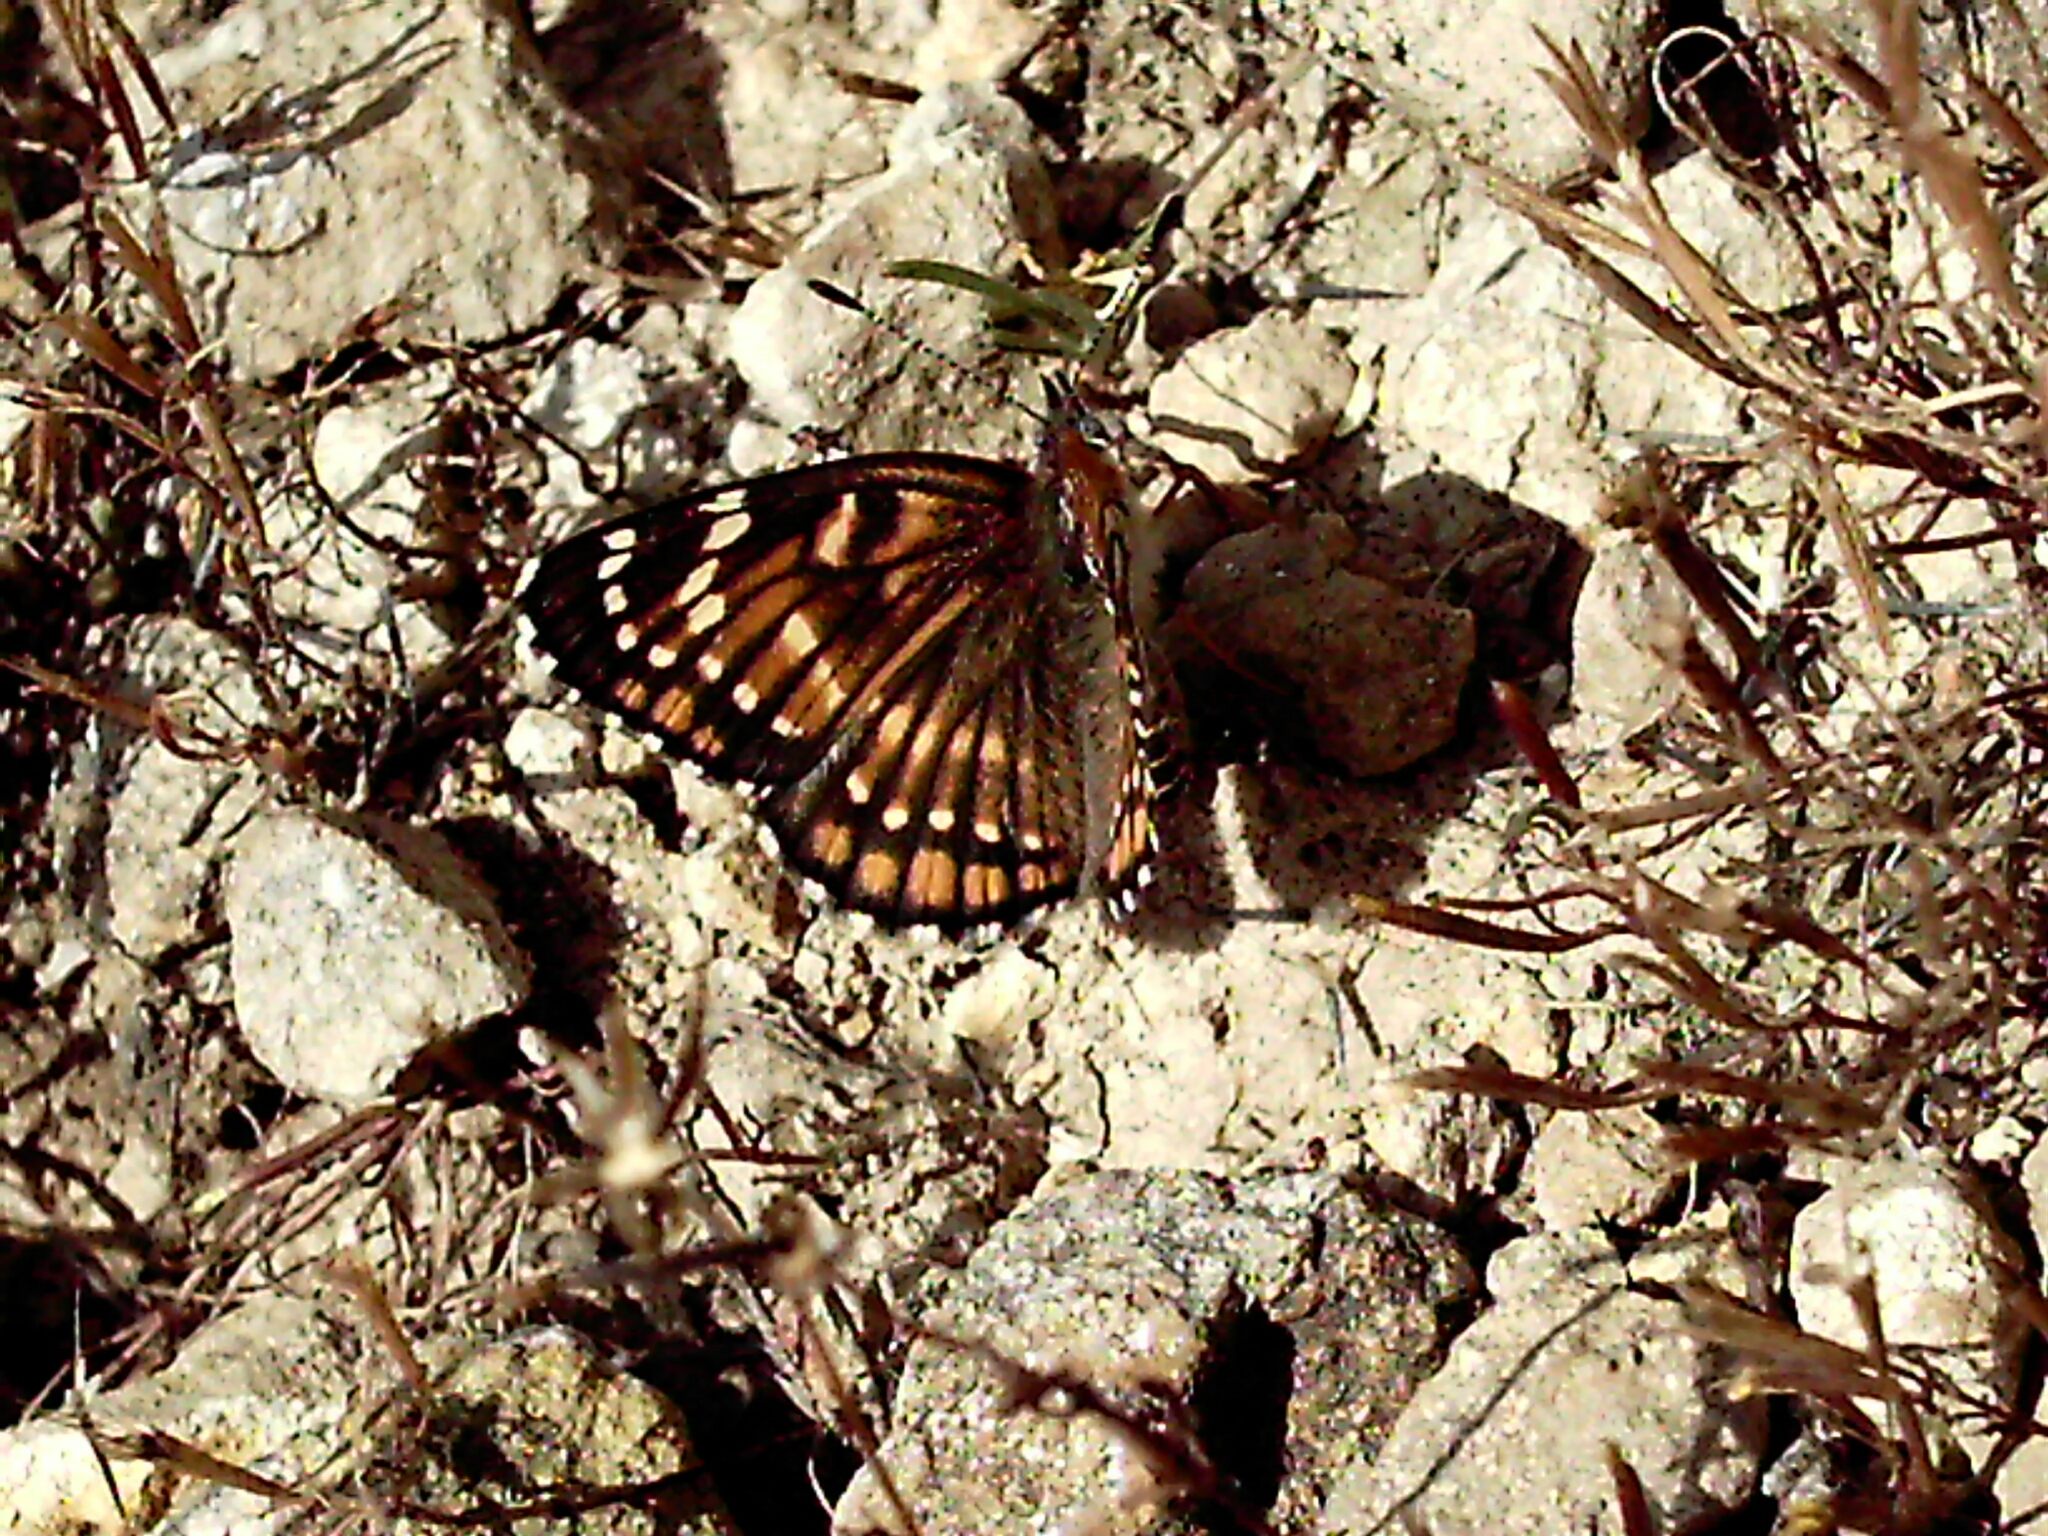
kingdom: Animalia
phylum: Arthropoda
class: Insecta
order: Lepidoptera
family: Nymphalidae
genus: Thessalia
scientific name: Thessalia leanira
